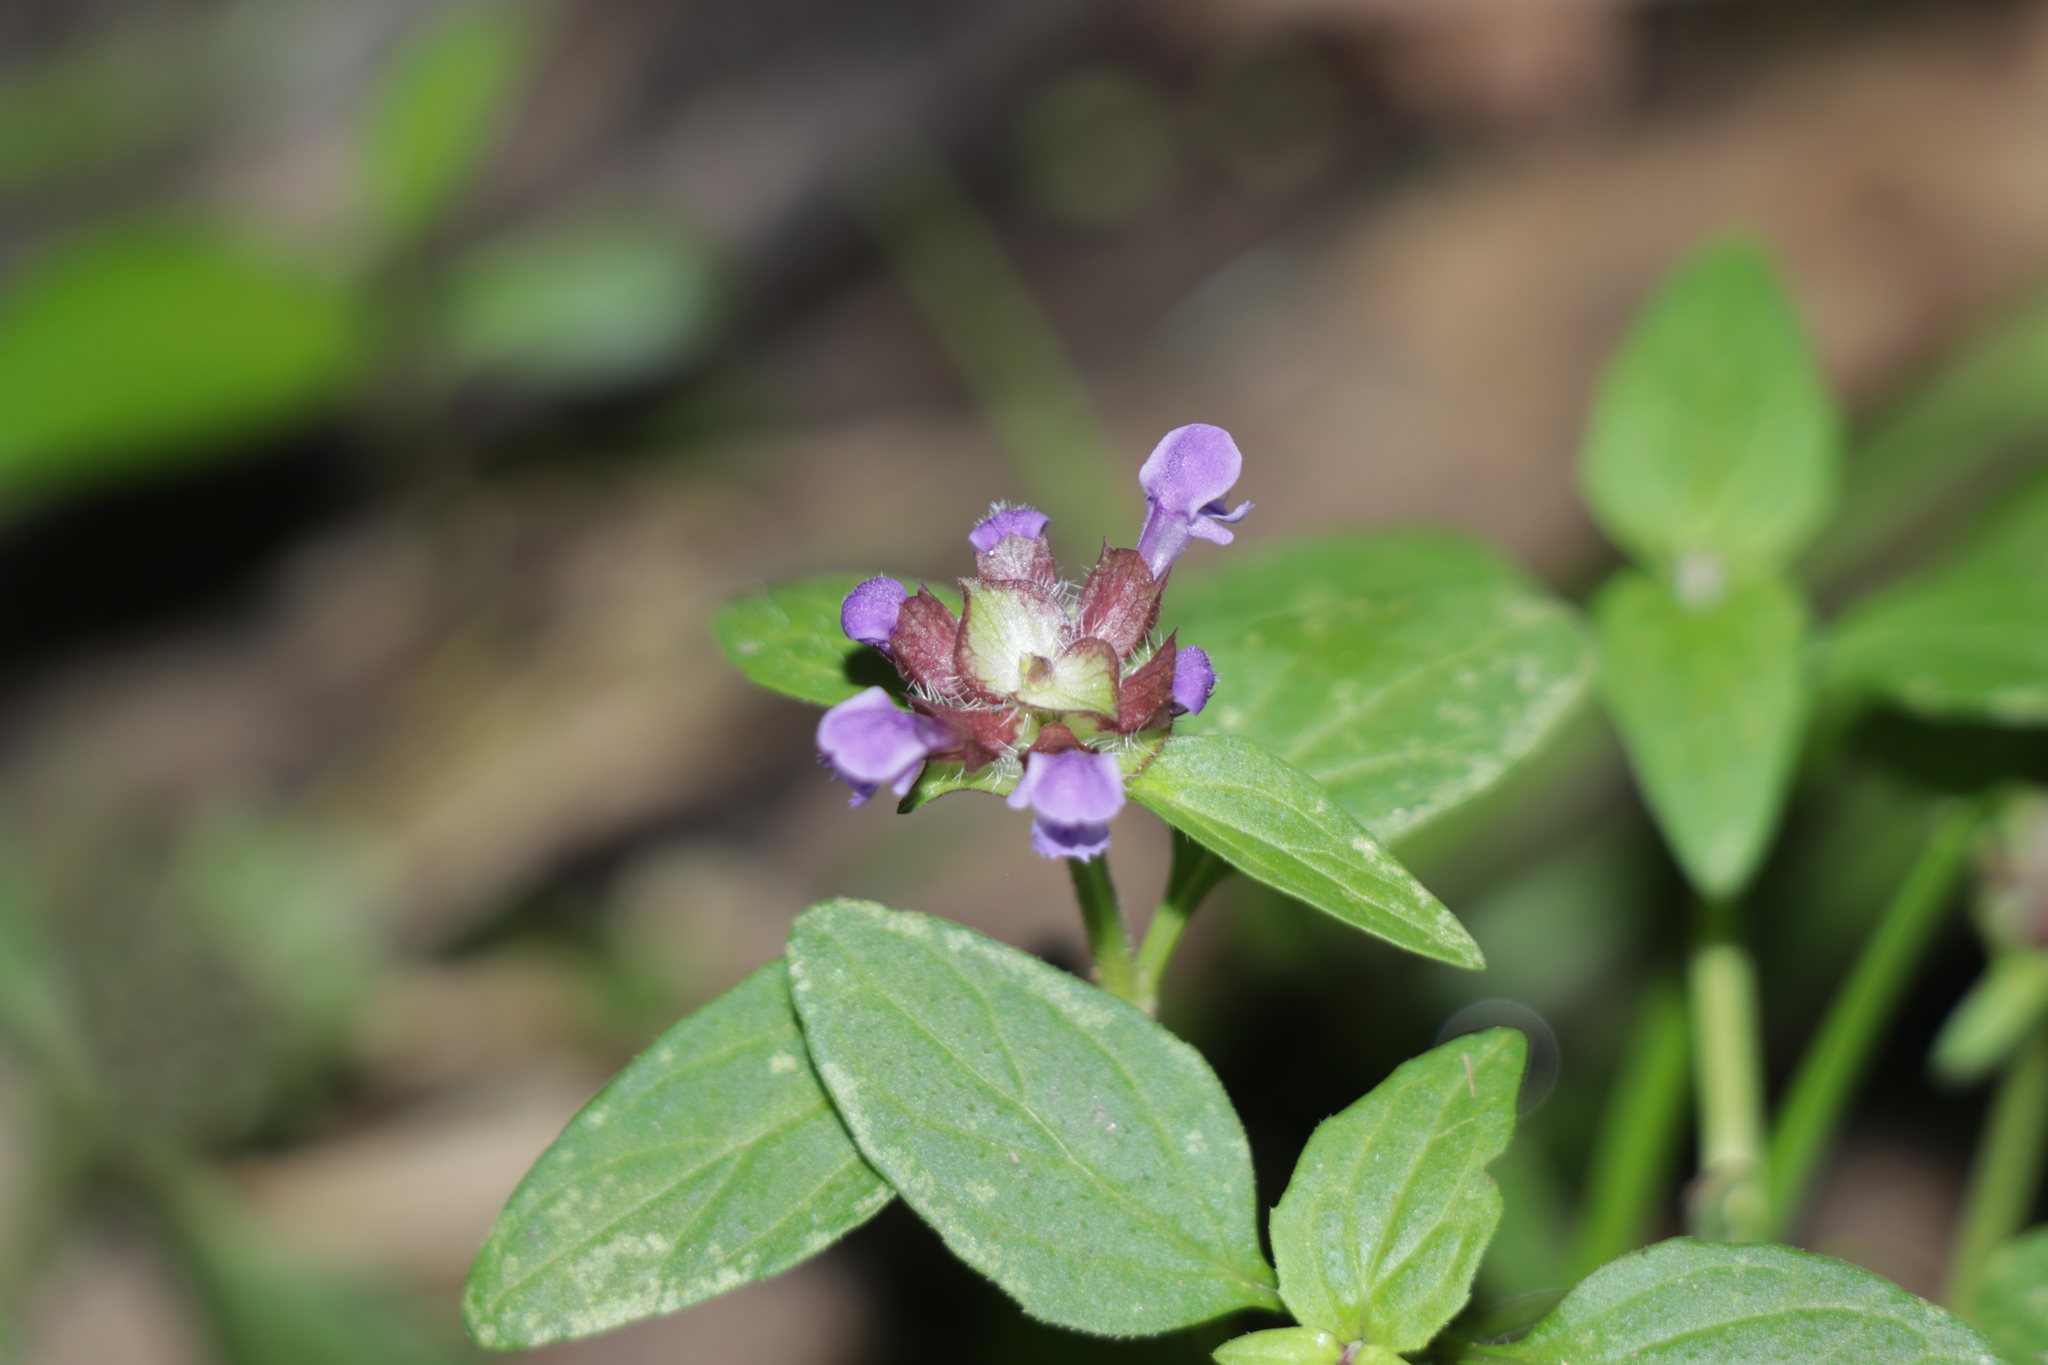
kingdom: Plantae
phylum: Tracheophyta
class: Magnoliopsida
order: Lamiales
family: Lamiaceae
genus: Prunella
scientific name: Prunella vulgaris
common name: Heal-all
